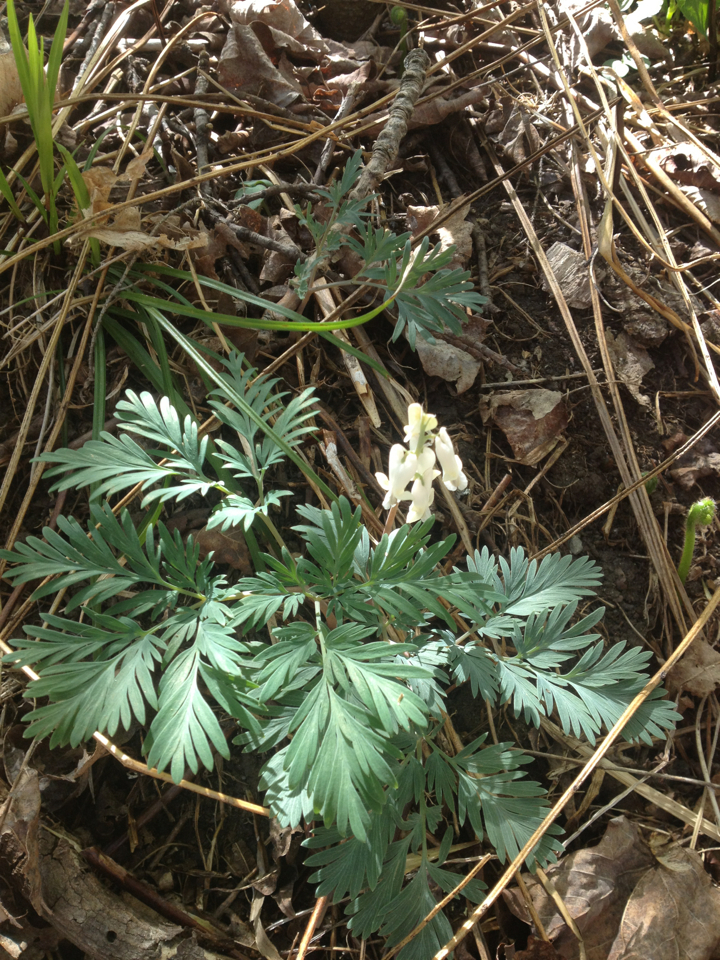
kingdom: Plantae
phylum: Tracheophyta
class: Magnoliopsida
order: Ranunculales
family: Papaveraceae
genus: Dicentra
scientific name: Dicentra canadensis
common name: Squirrel-corn
